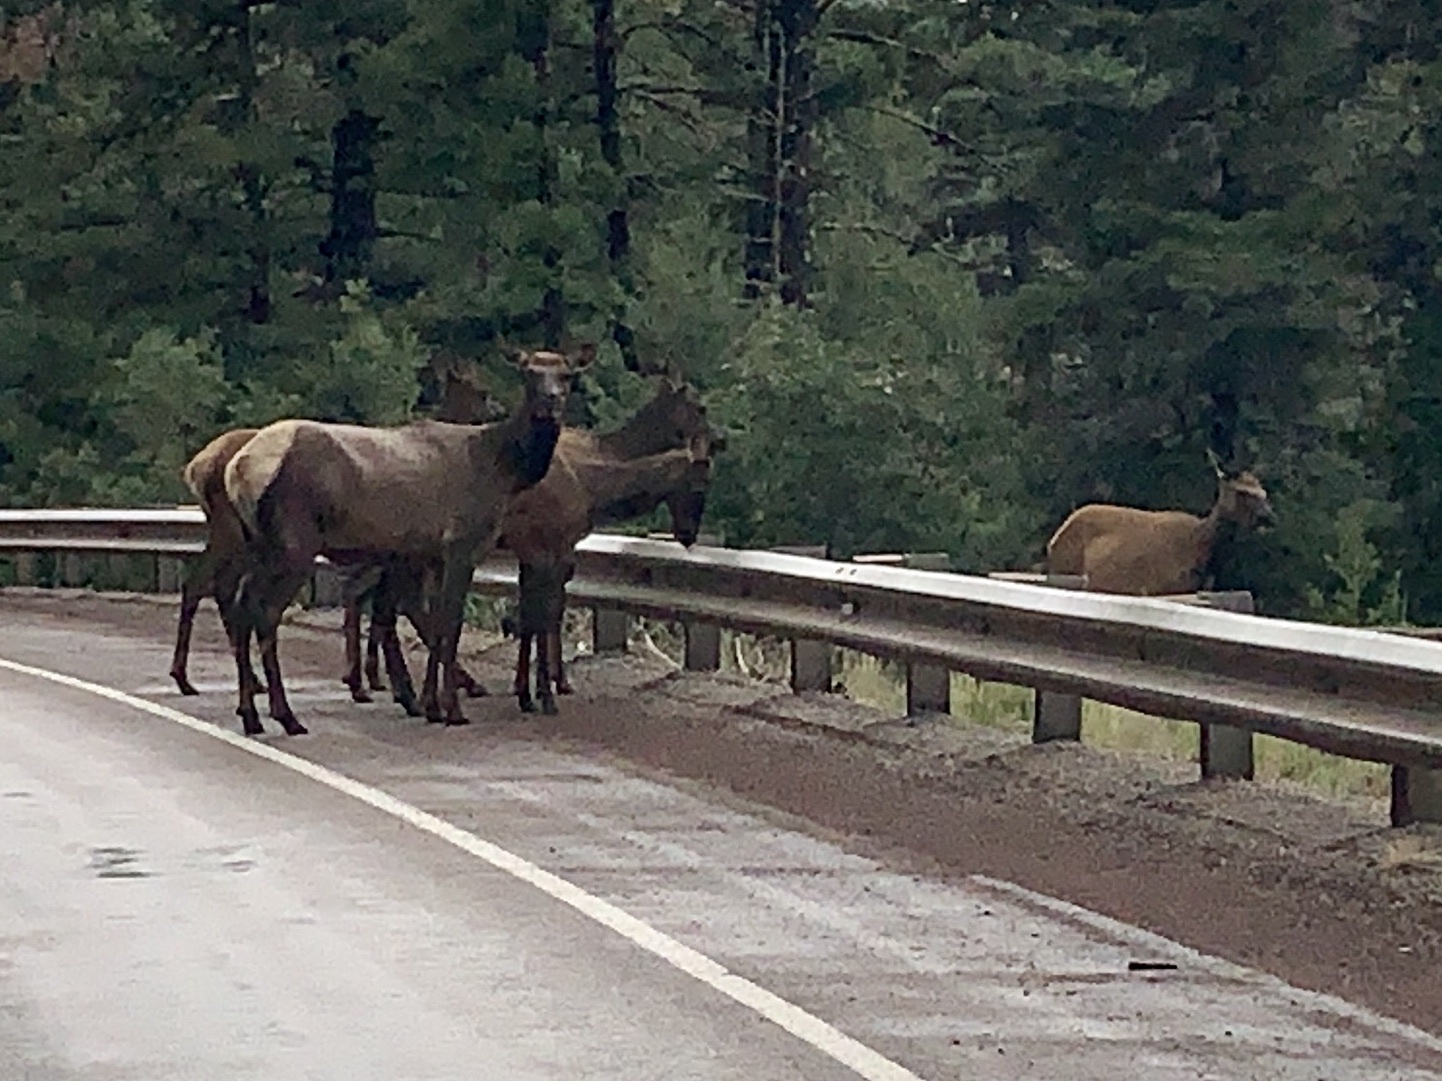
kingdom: Animalia
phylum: Chordata
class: Mammalia
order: Artiodactyla
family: Cervidae
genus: Cervus
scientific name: Cervus elaphus
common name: Red deer
